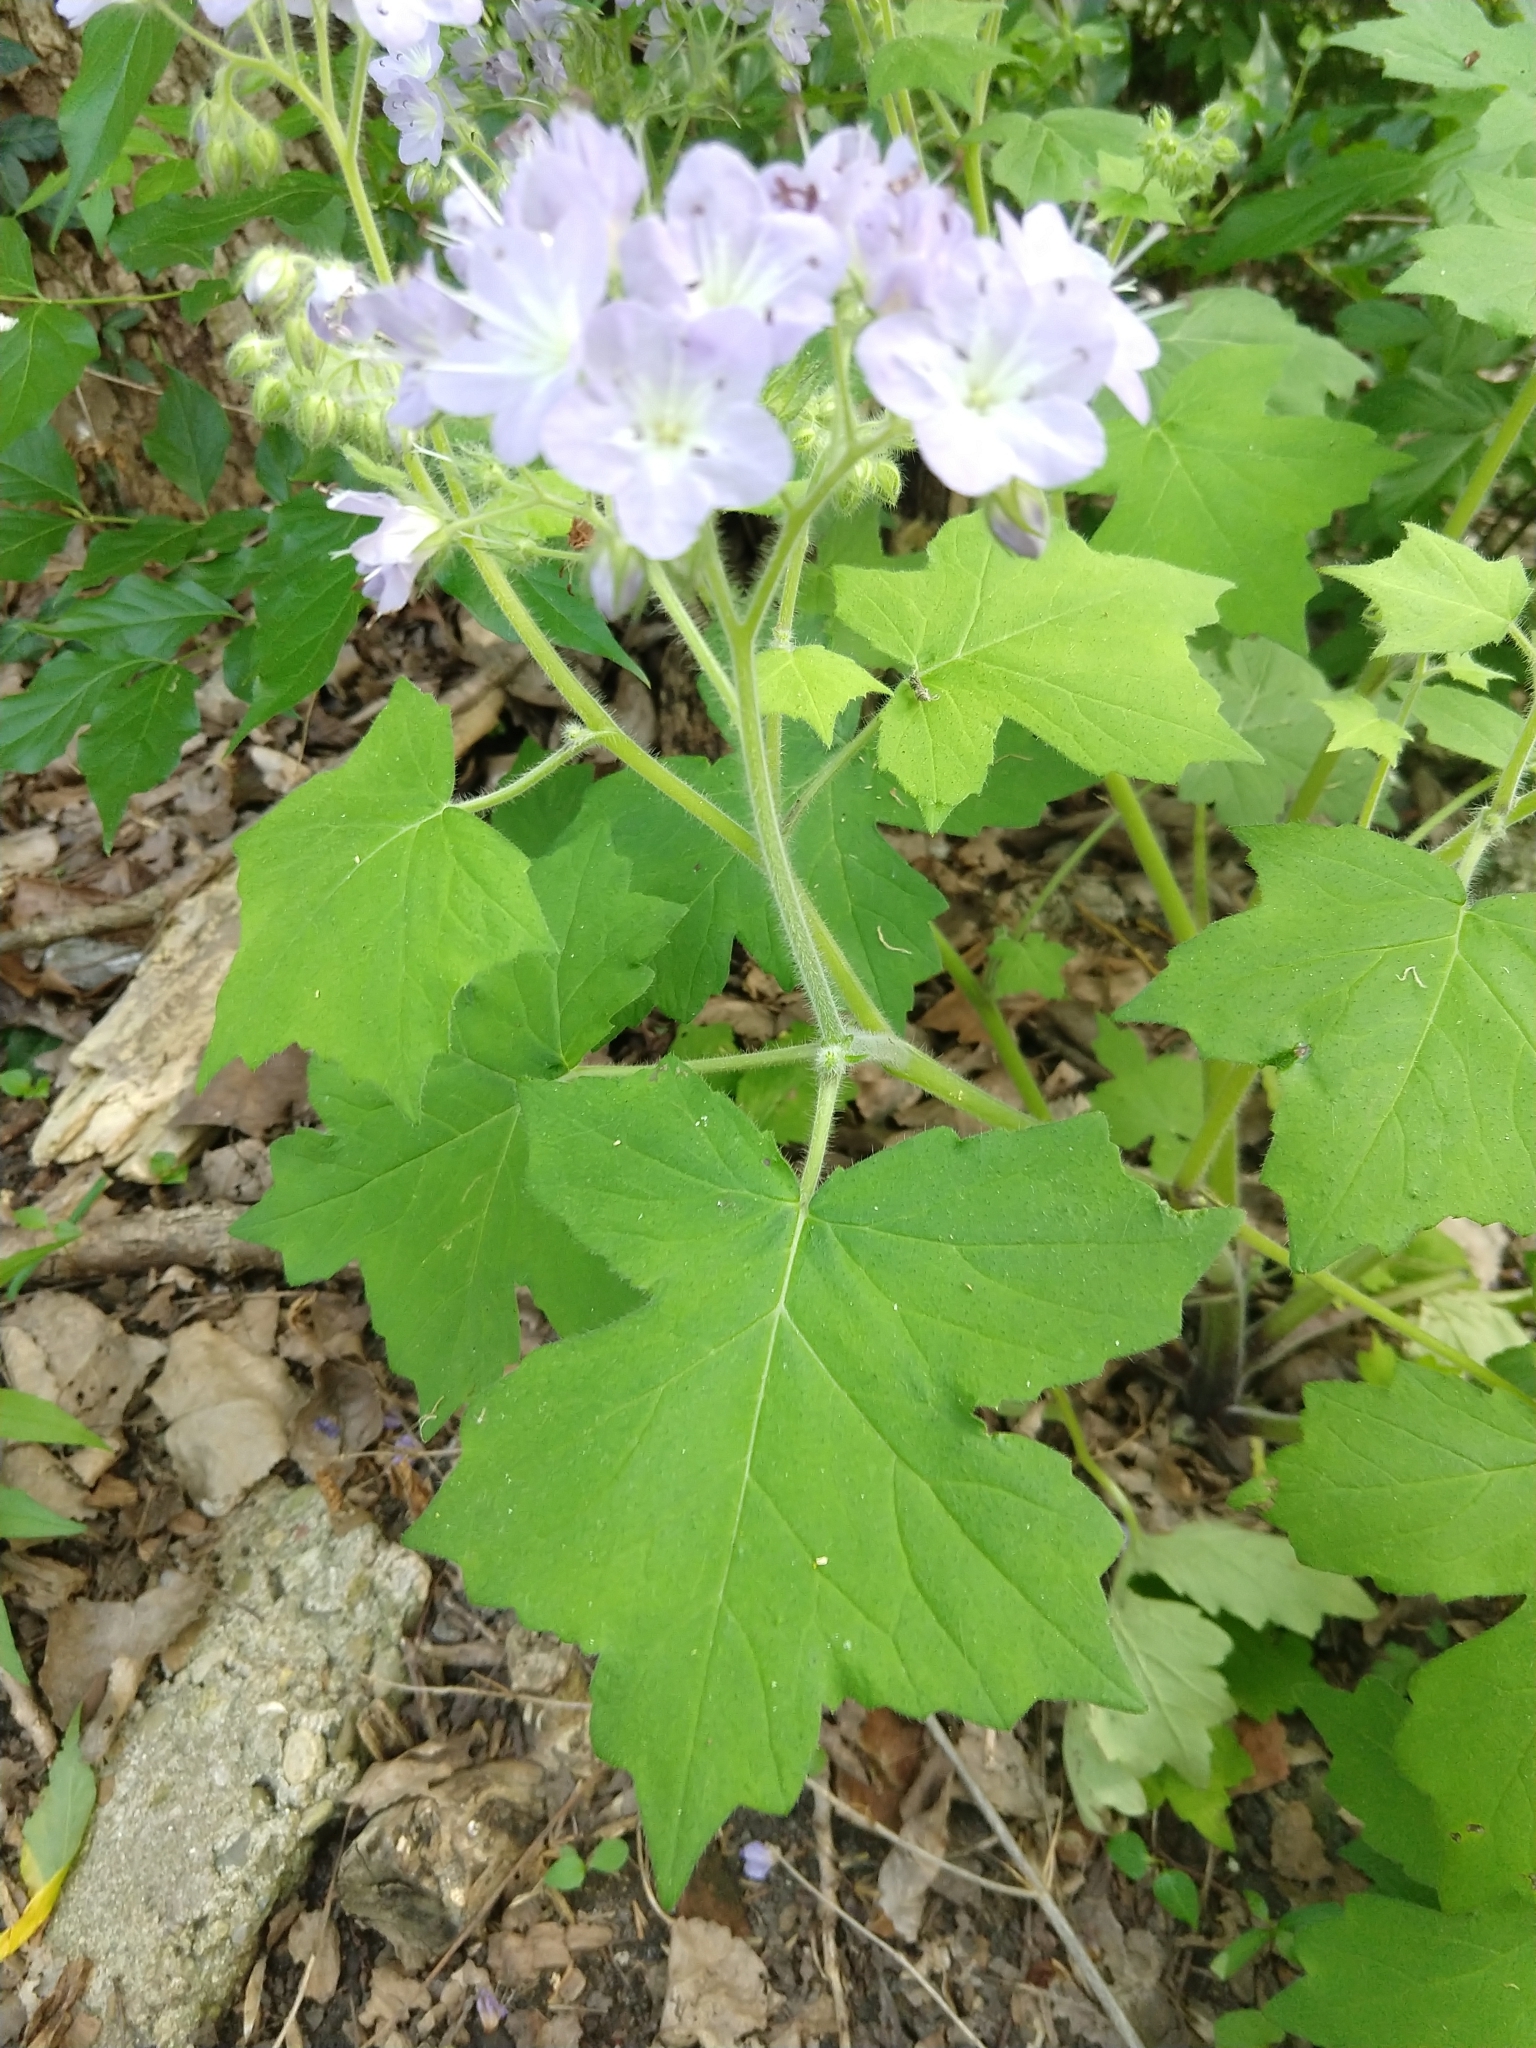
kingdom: Plantae
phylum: Tracheophyta
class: Magnoliopsida
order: Boraginales
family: Hydrophyllaceae
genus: Hydrophyllum
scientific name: Hydrophyllum appendiculatum
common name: Appendaged waterleaf
